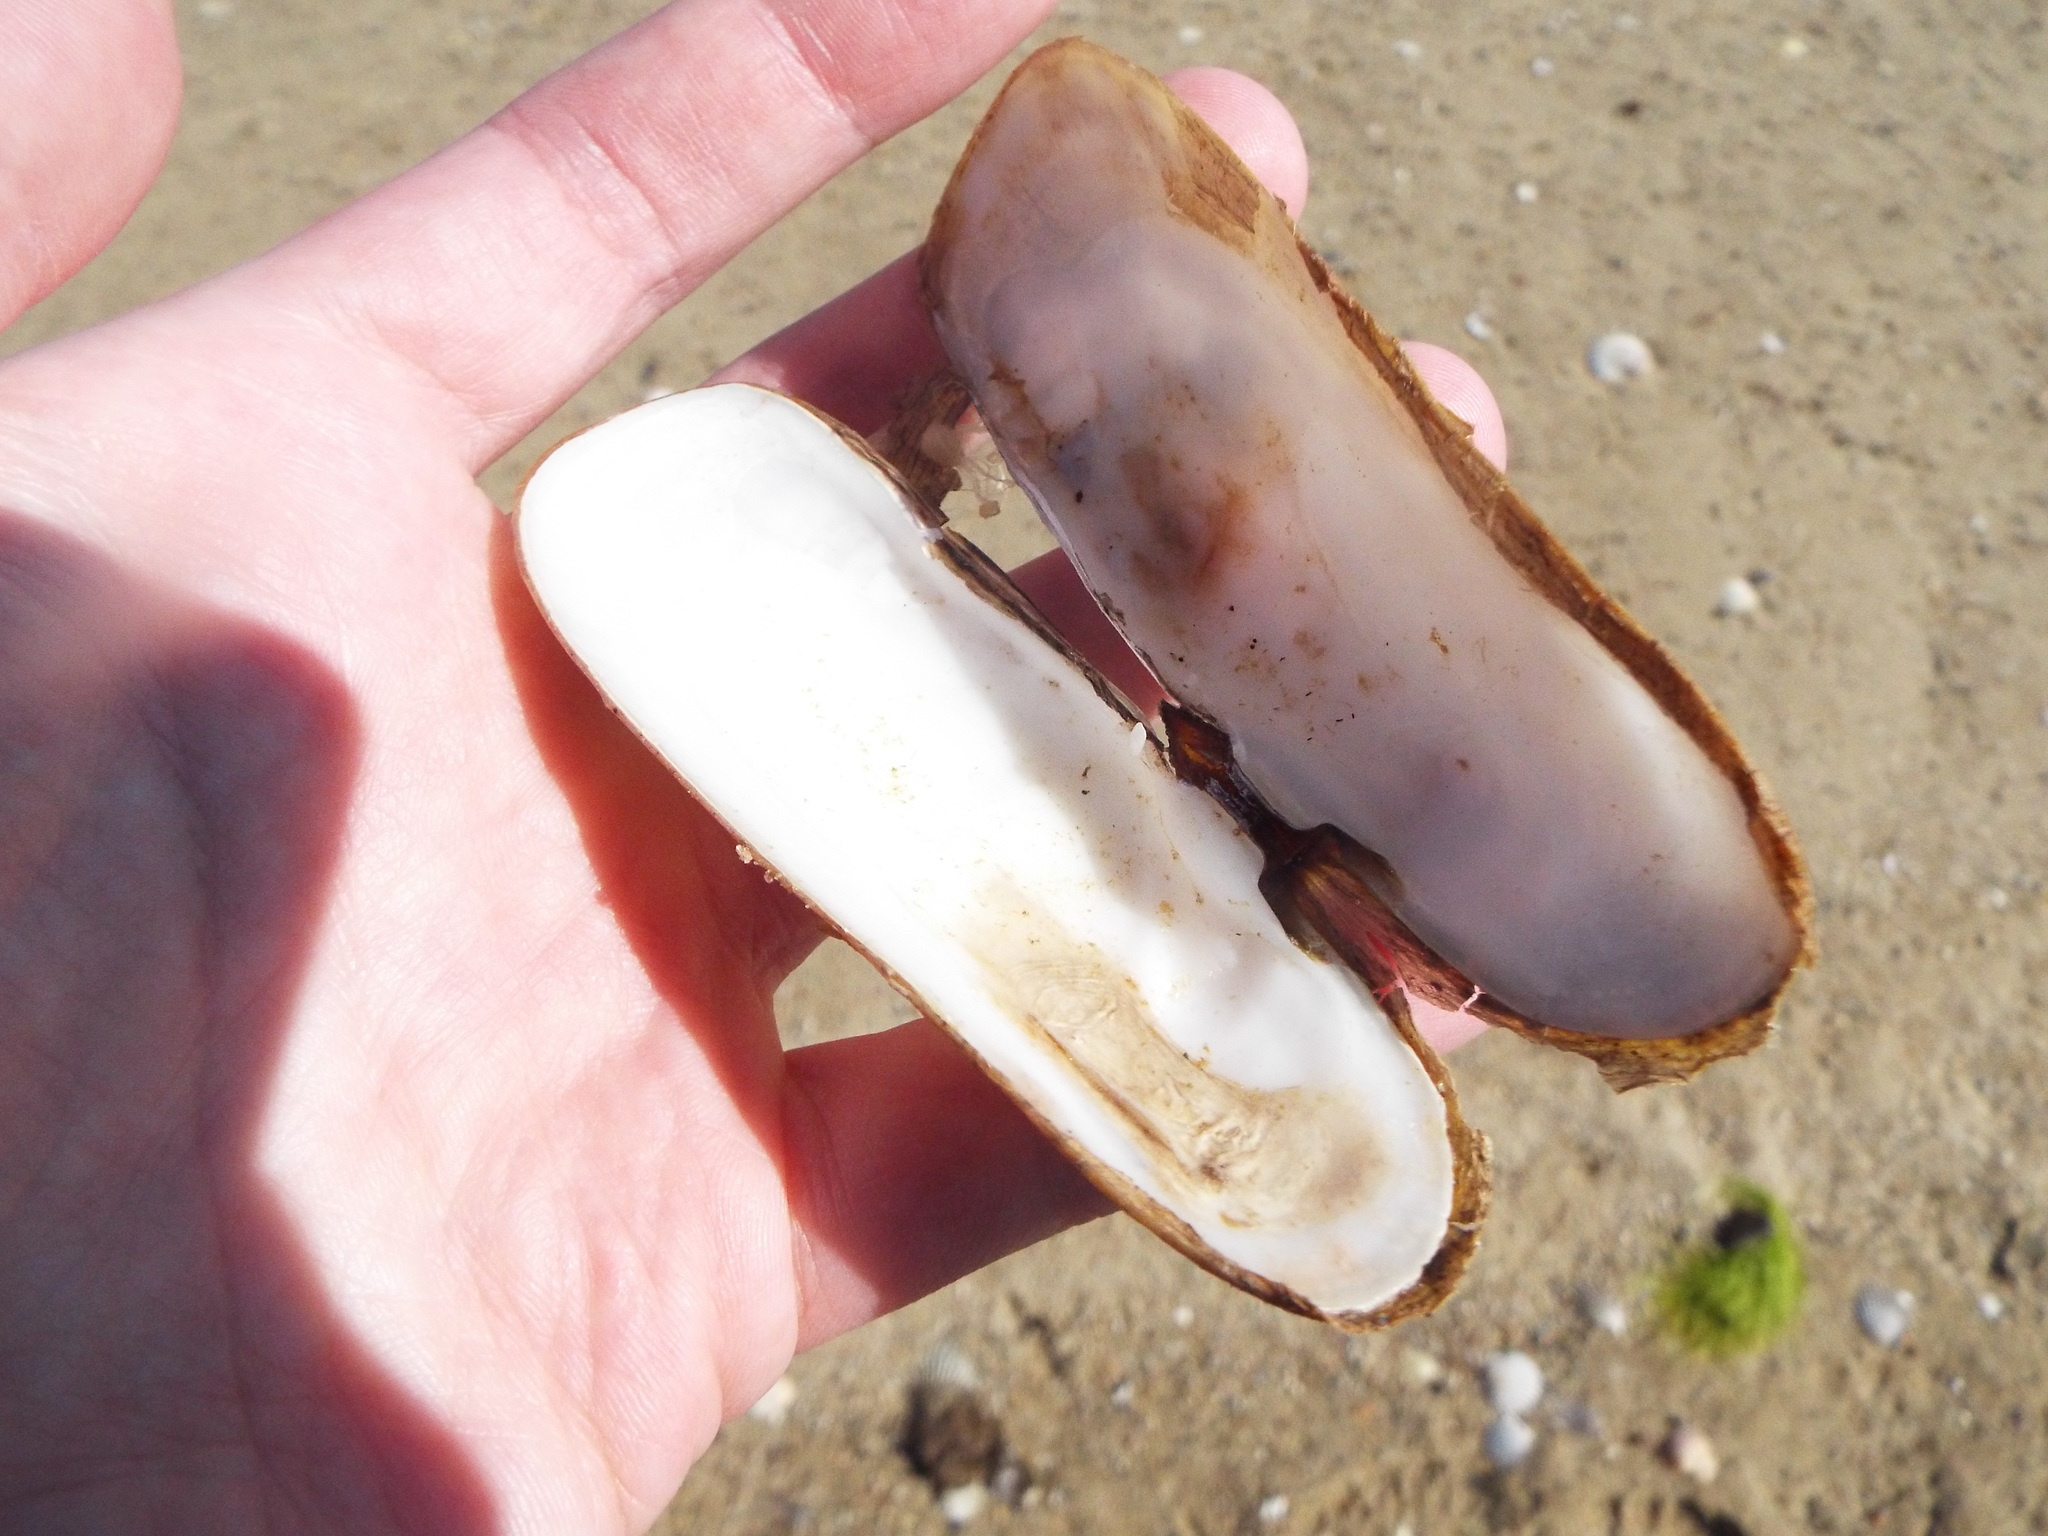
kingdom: Animalia
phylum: Mollusca
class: Bivalvia
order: Cardiida
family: Solecurtidae
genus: Tagelus
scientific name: Tagelus plebeius
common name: Stout tagelus
